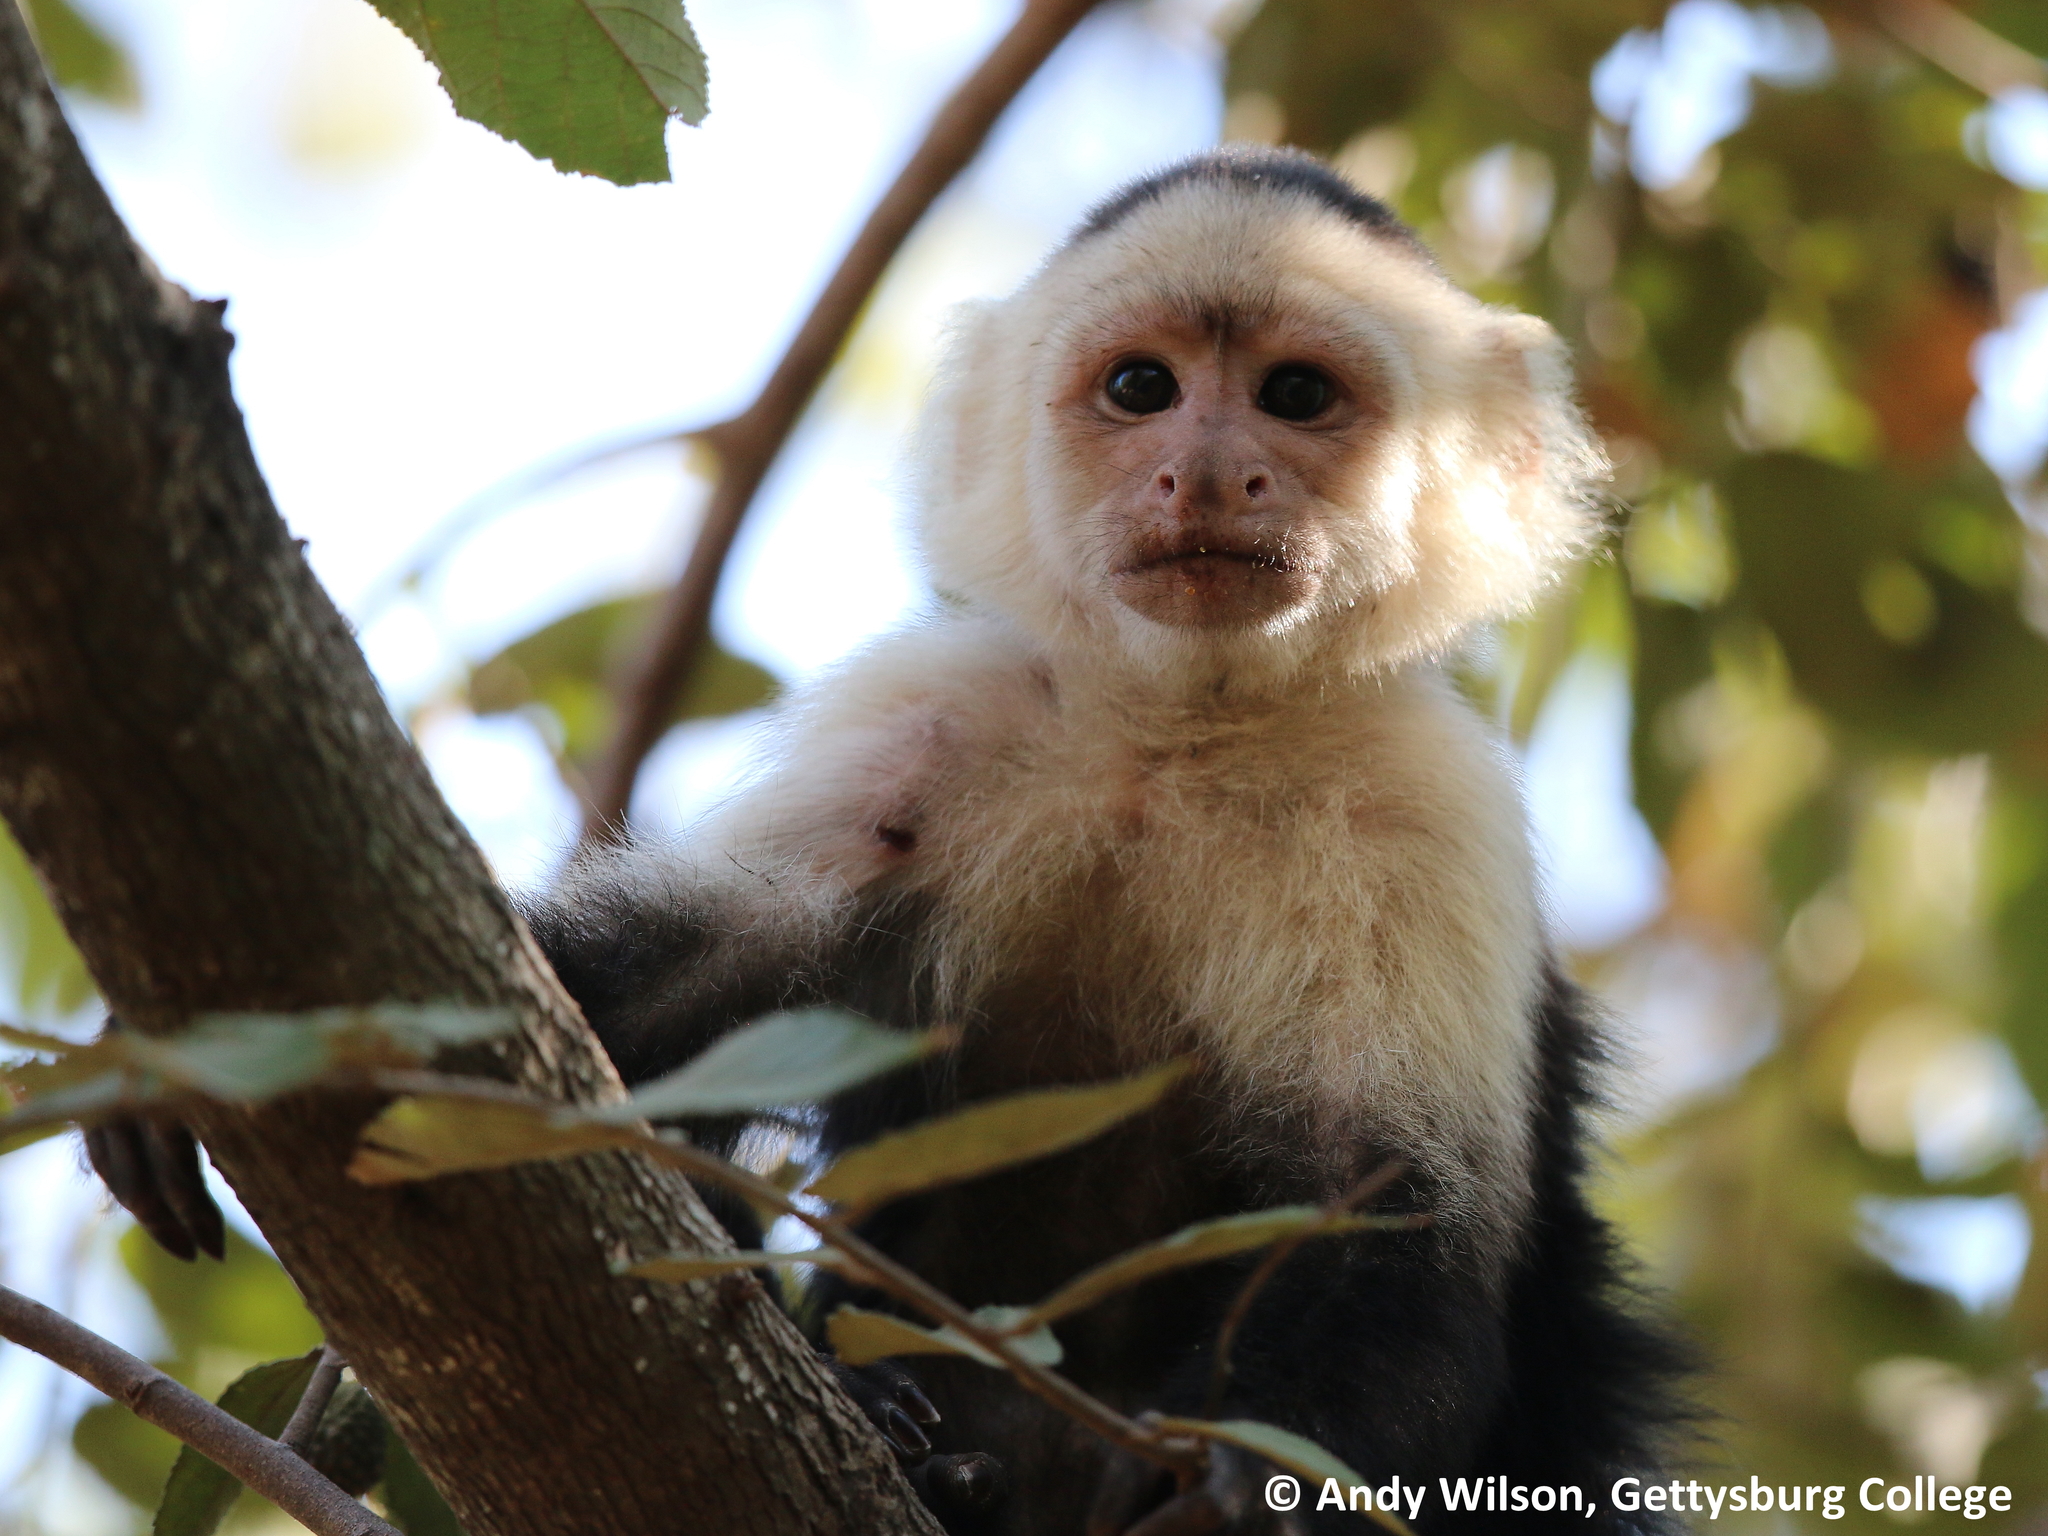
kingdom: Animalia
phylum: Chordata
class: Mammalia
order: Primates
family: Cebidae
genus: Cebus
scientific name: Cebus imitator
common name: Panamanian white-faced capuchin
